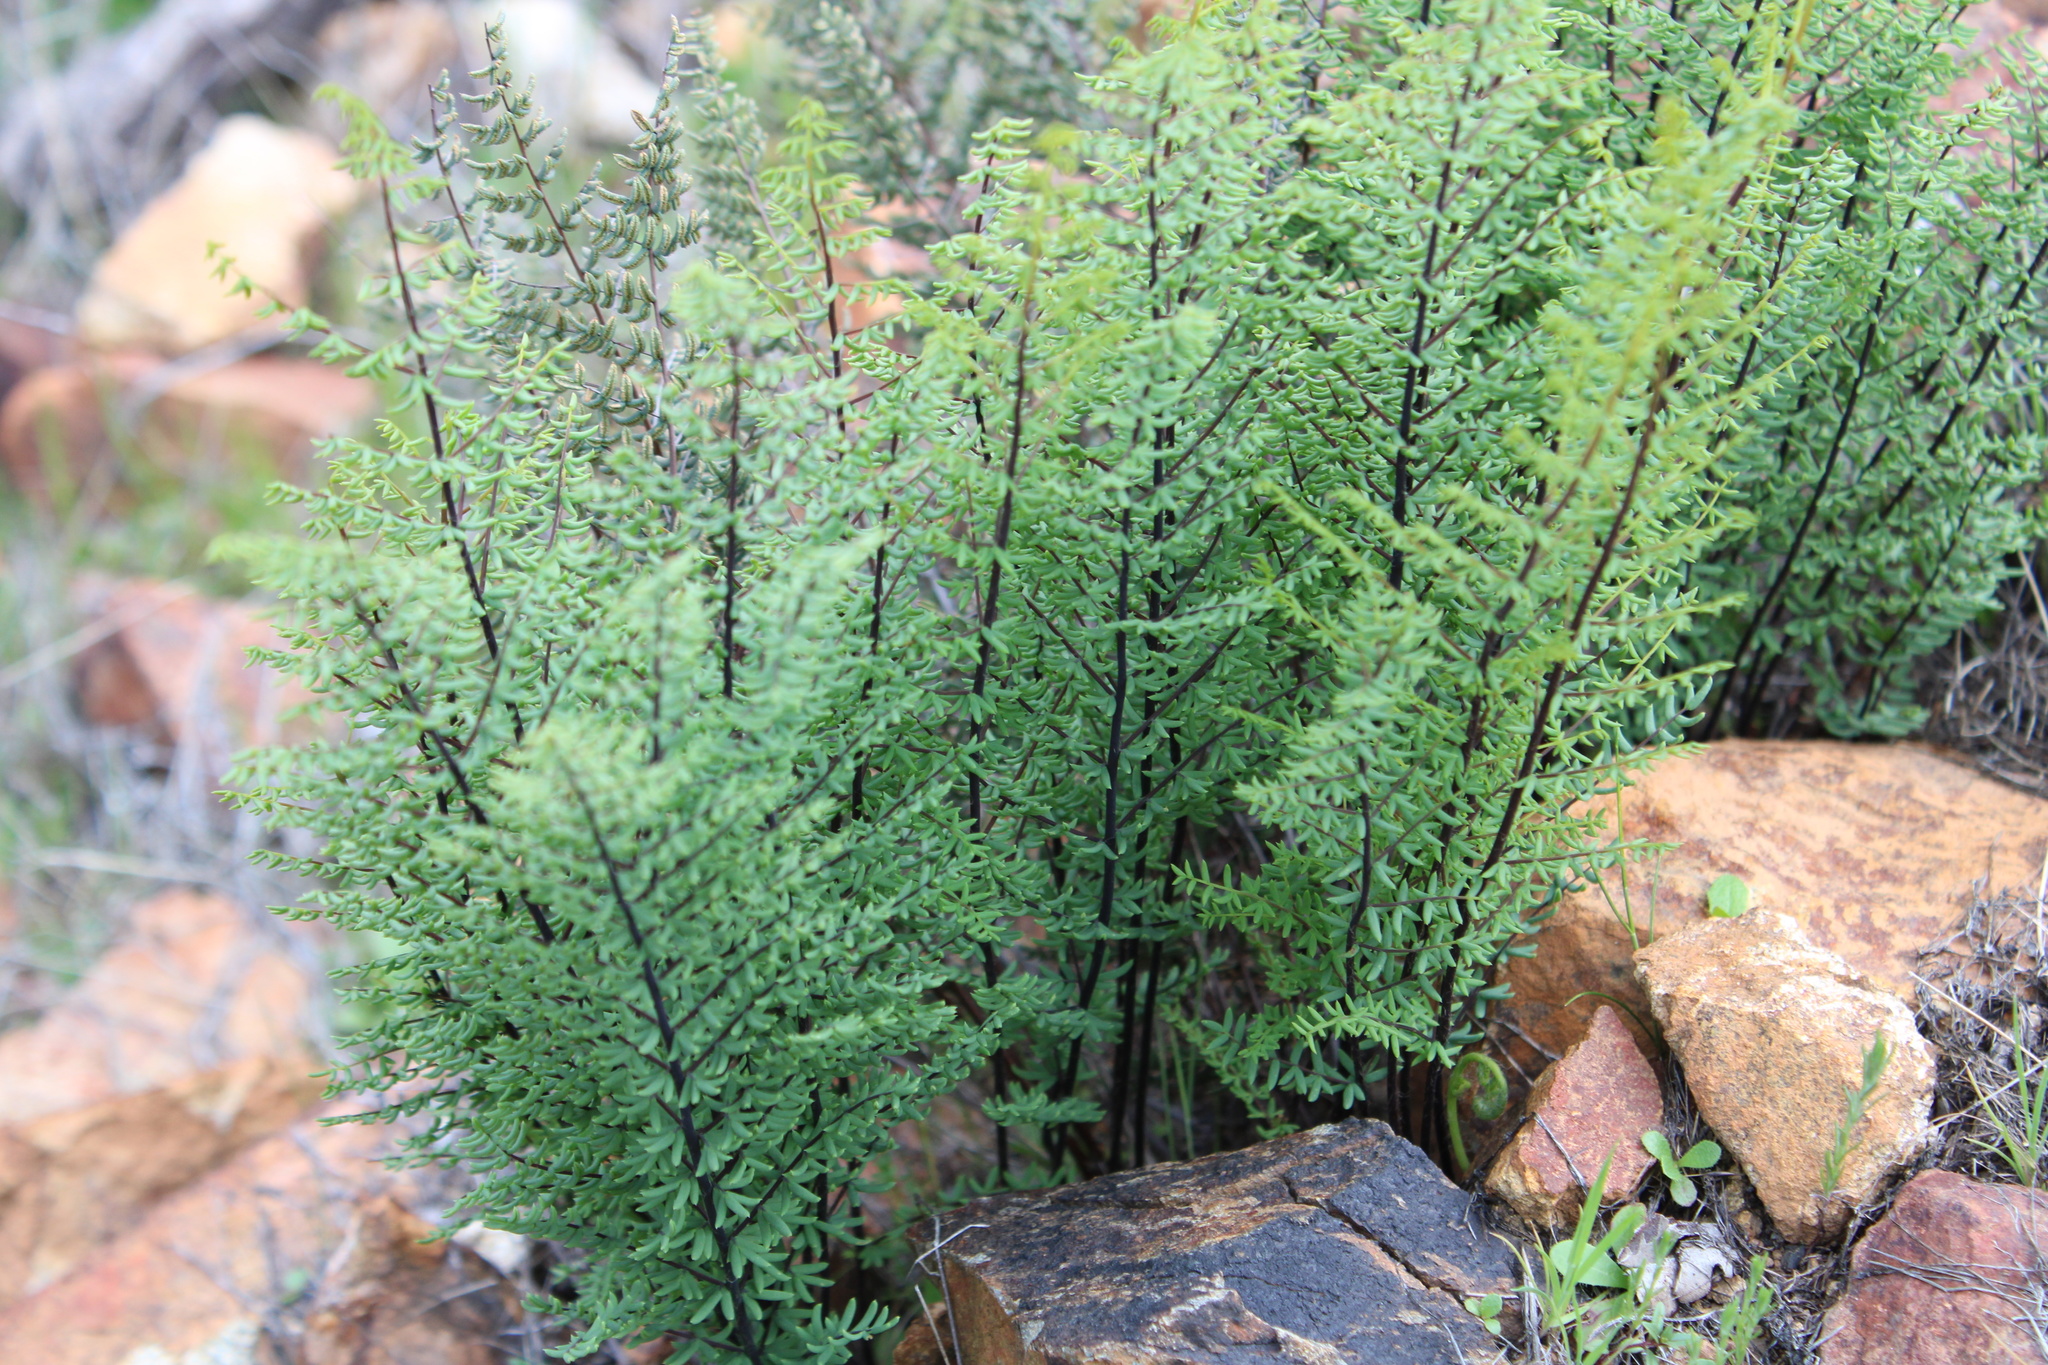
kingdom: Plantae
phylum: Tracheophyta
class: Polypodiopsida
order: Polypodiales
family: Pteridaceae
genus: Pellaea
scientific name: Pellaea mucronata
